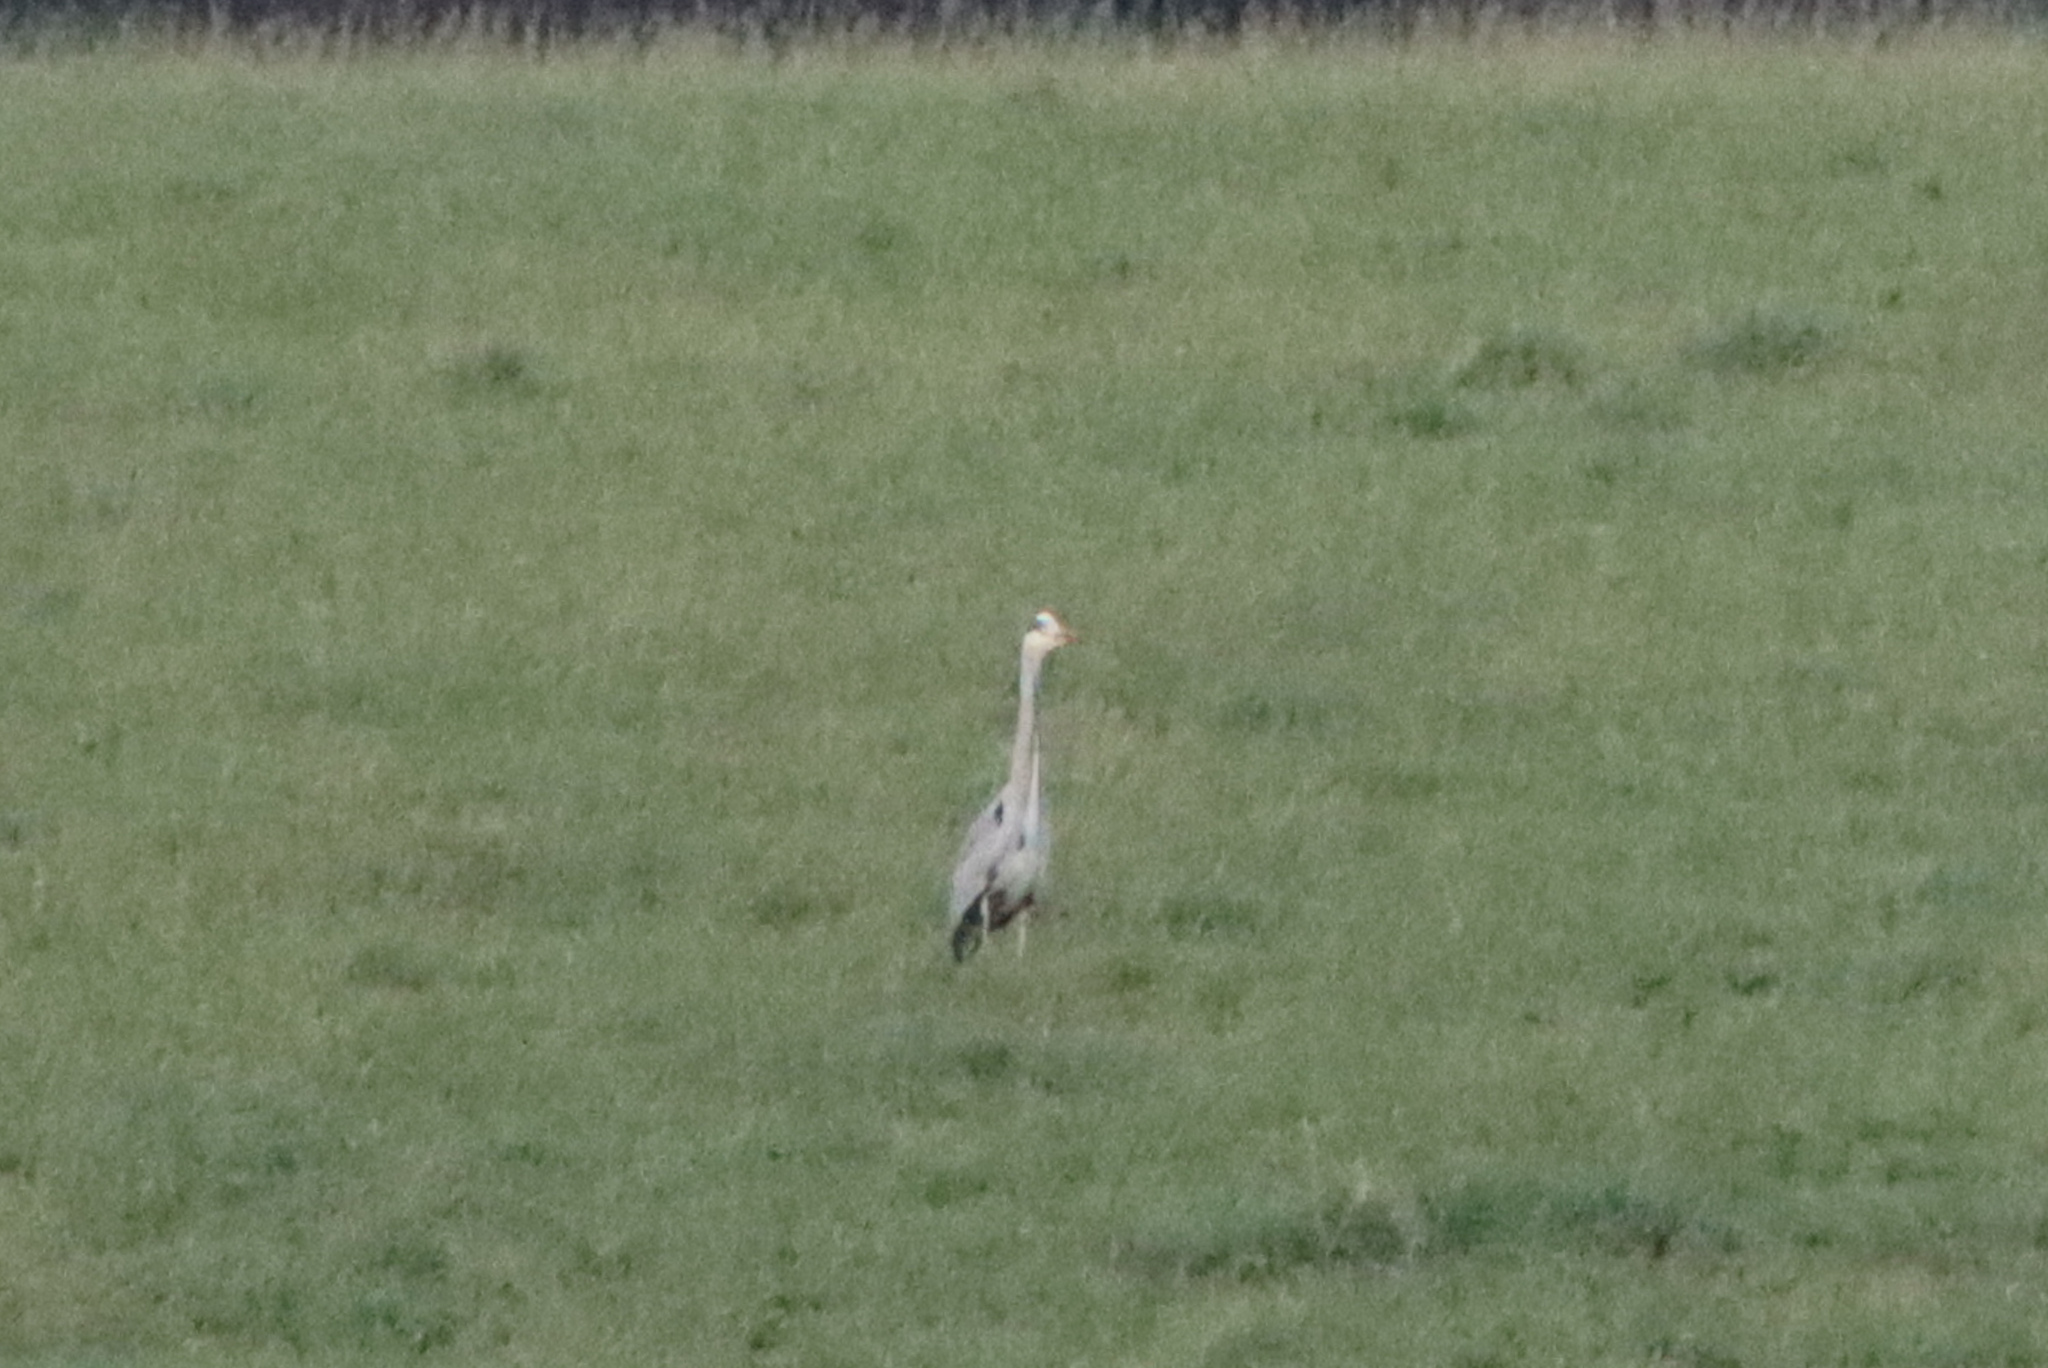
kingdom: Animalia
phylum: Chordata
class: Aves
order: Pelecaniformes
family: Ardeidae
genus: Ardea
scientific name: Ardea cinerea
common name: Grey heron
